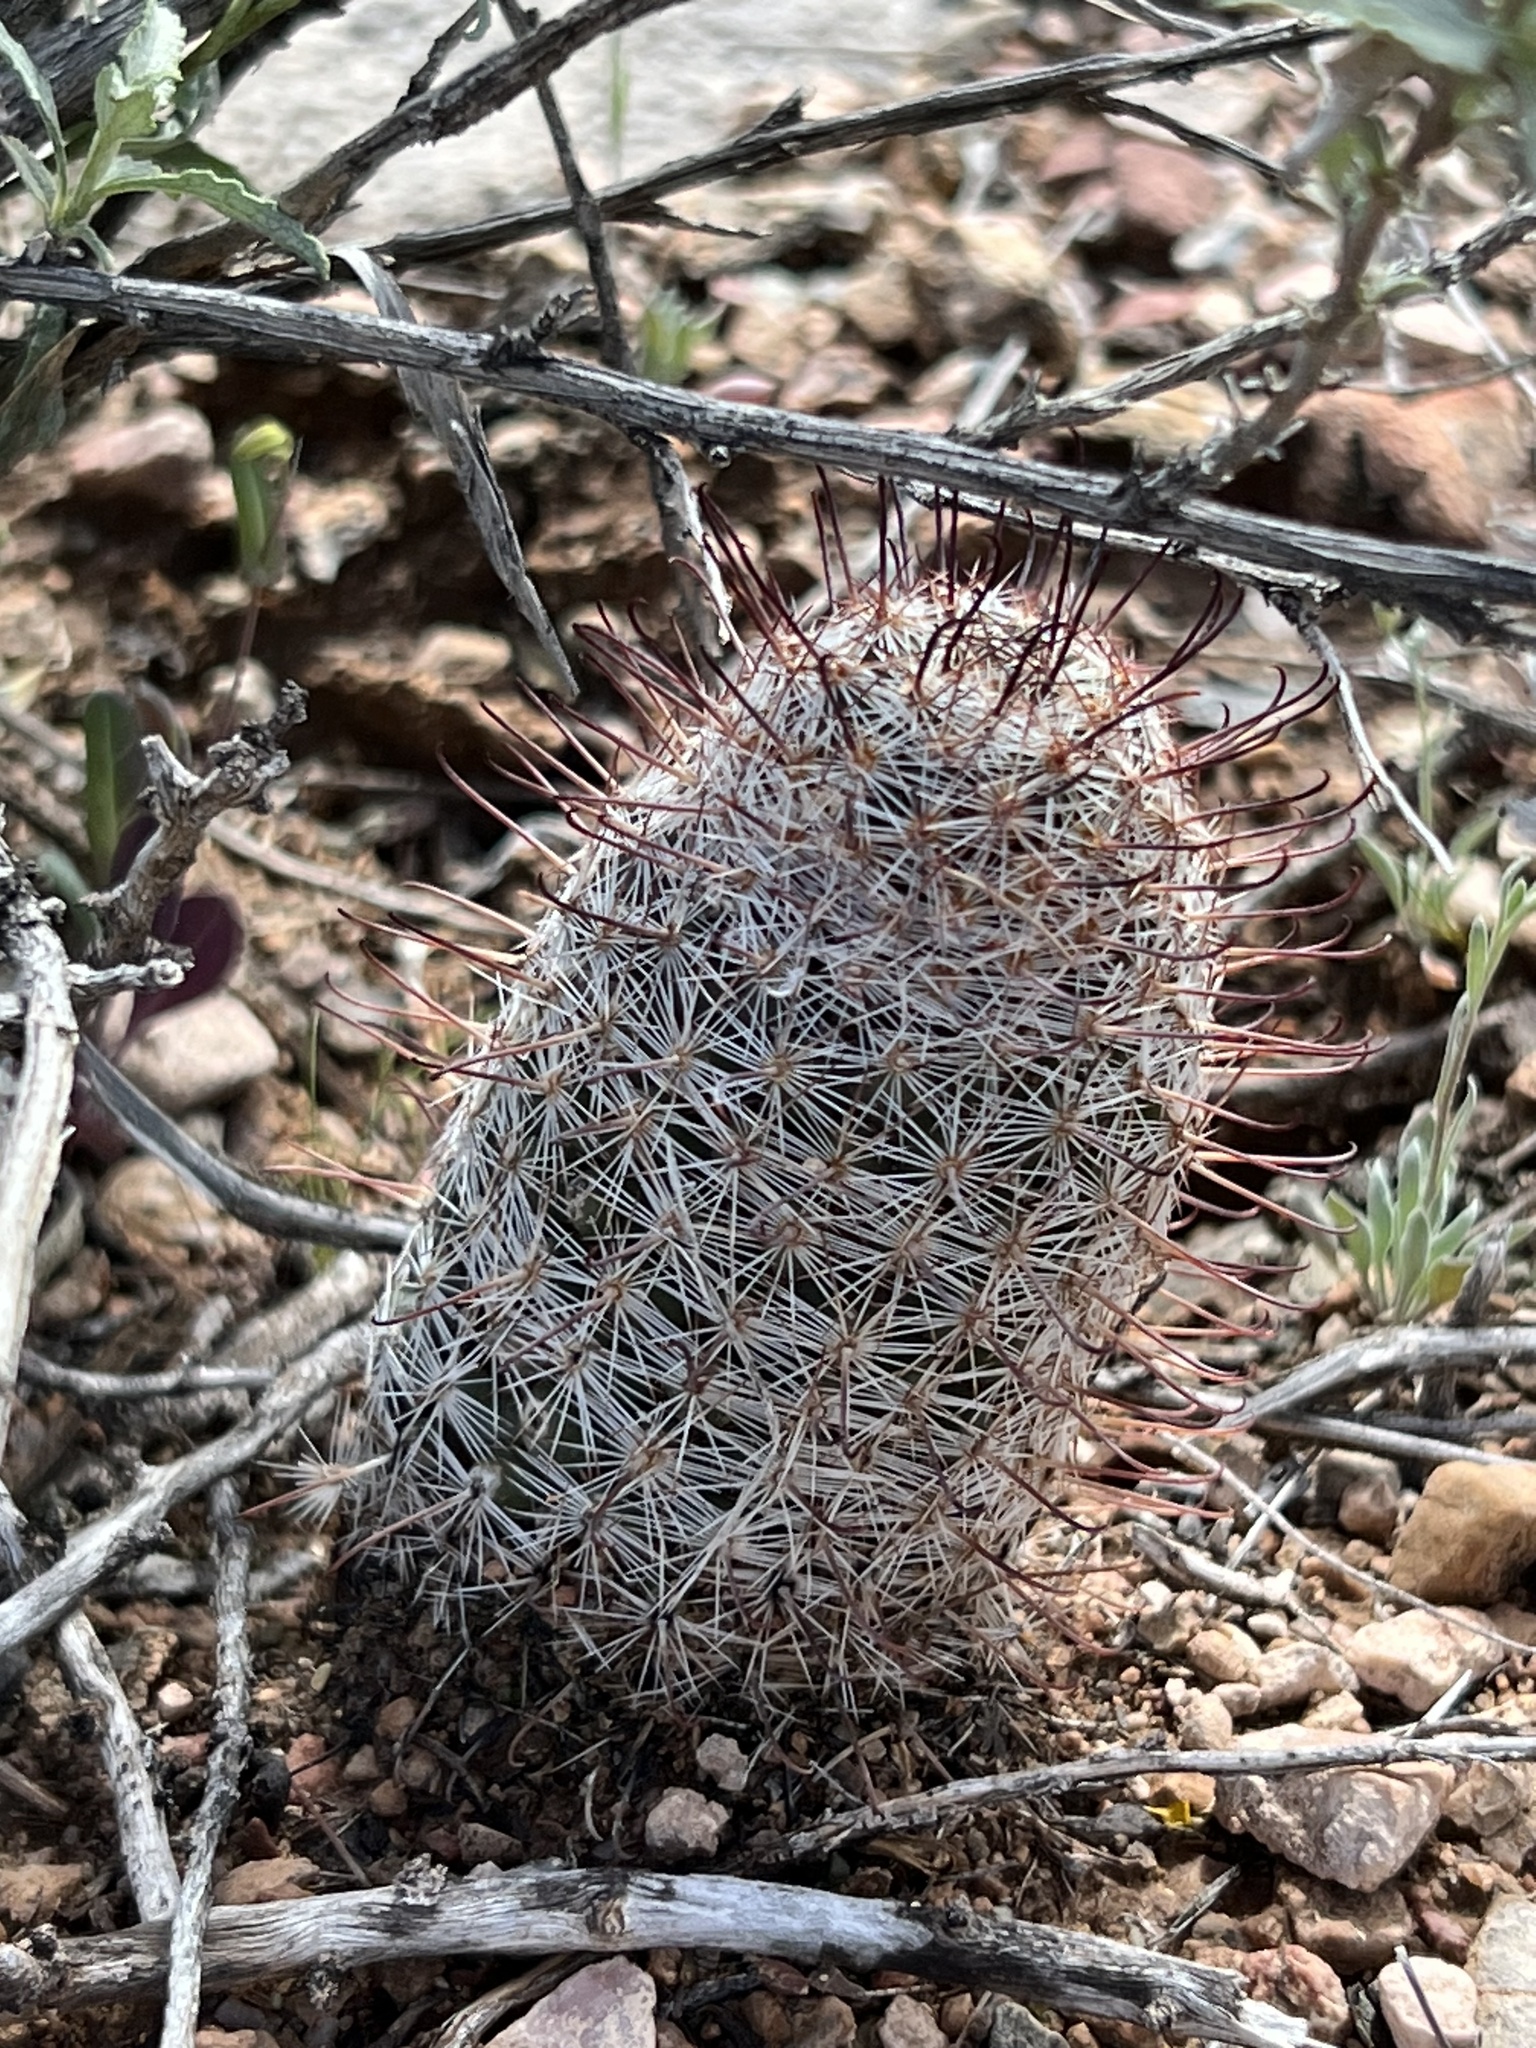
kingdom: Plantae
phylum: Tracheophyta
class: Magnoliopsida
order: Caryophyllales
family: Cactaceae
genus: Cochemiea
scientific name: Cochemiea grahamii
